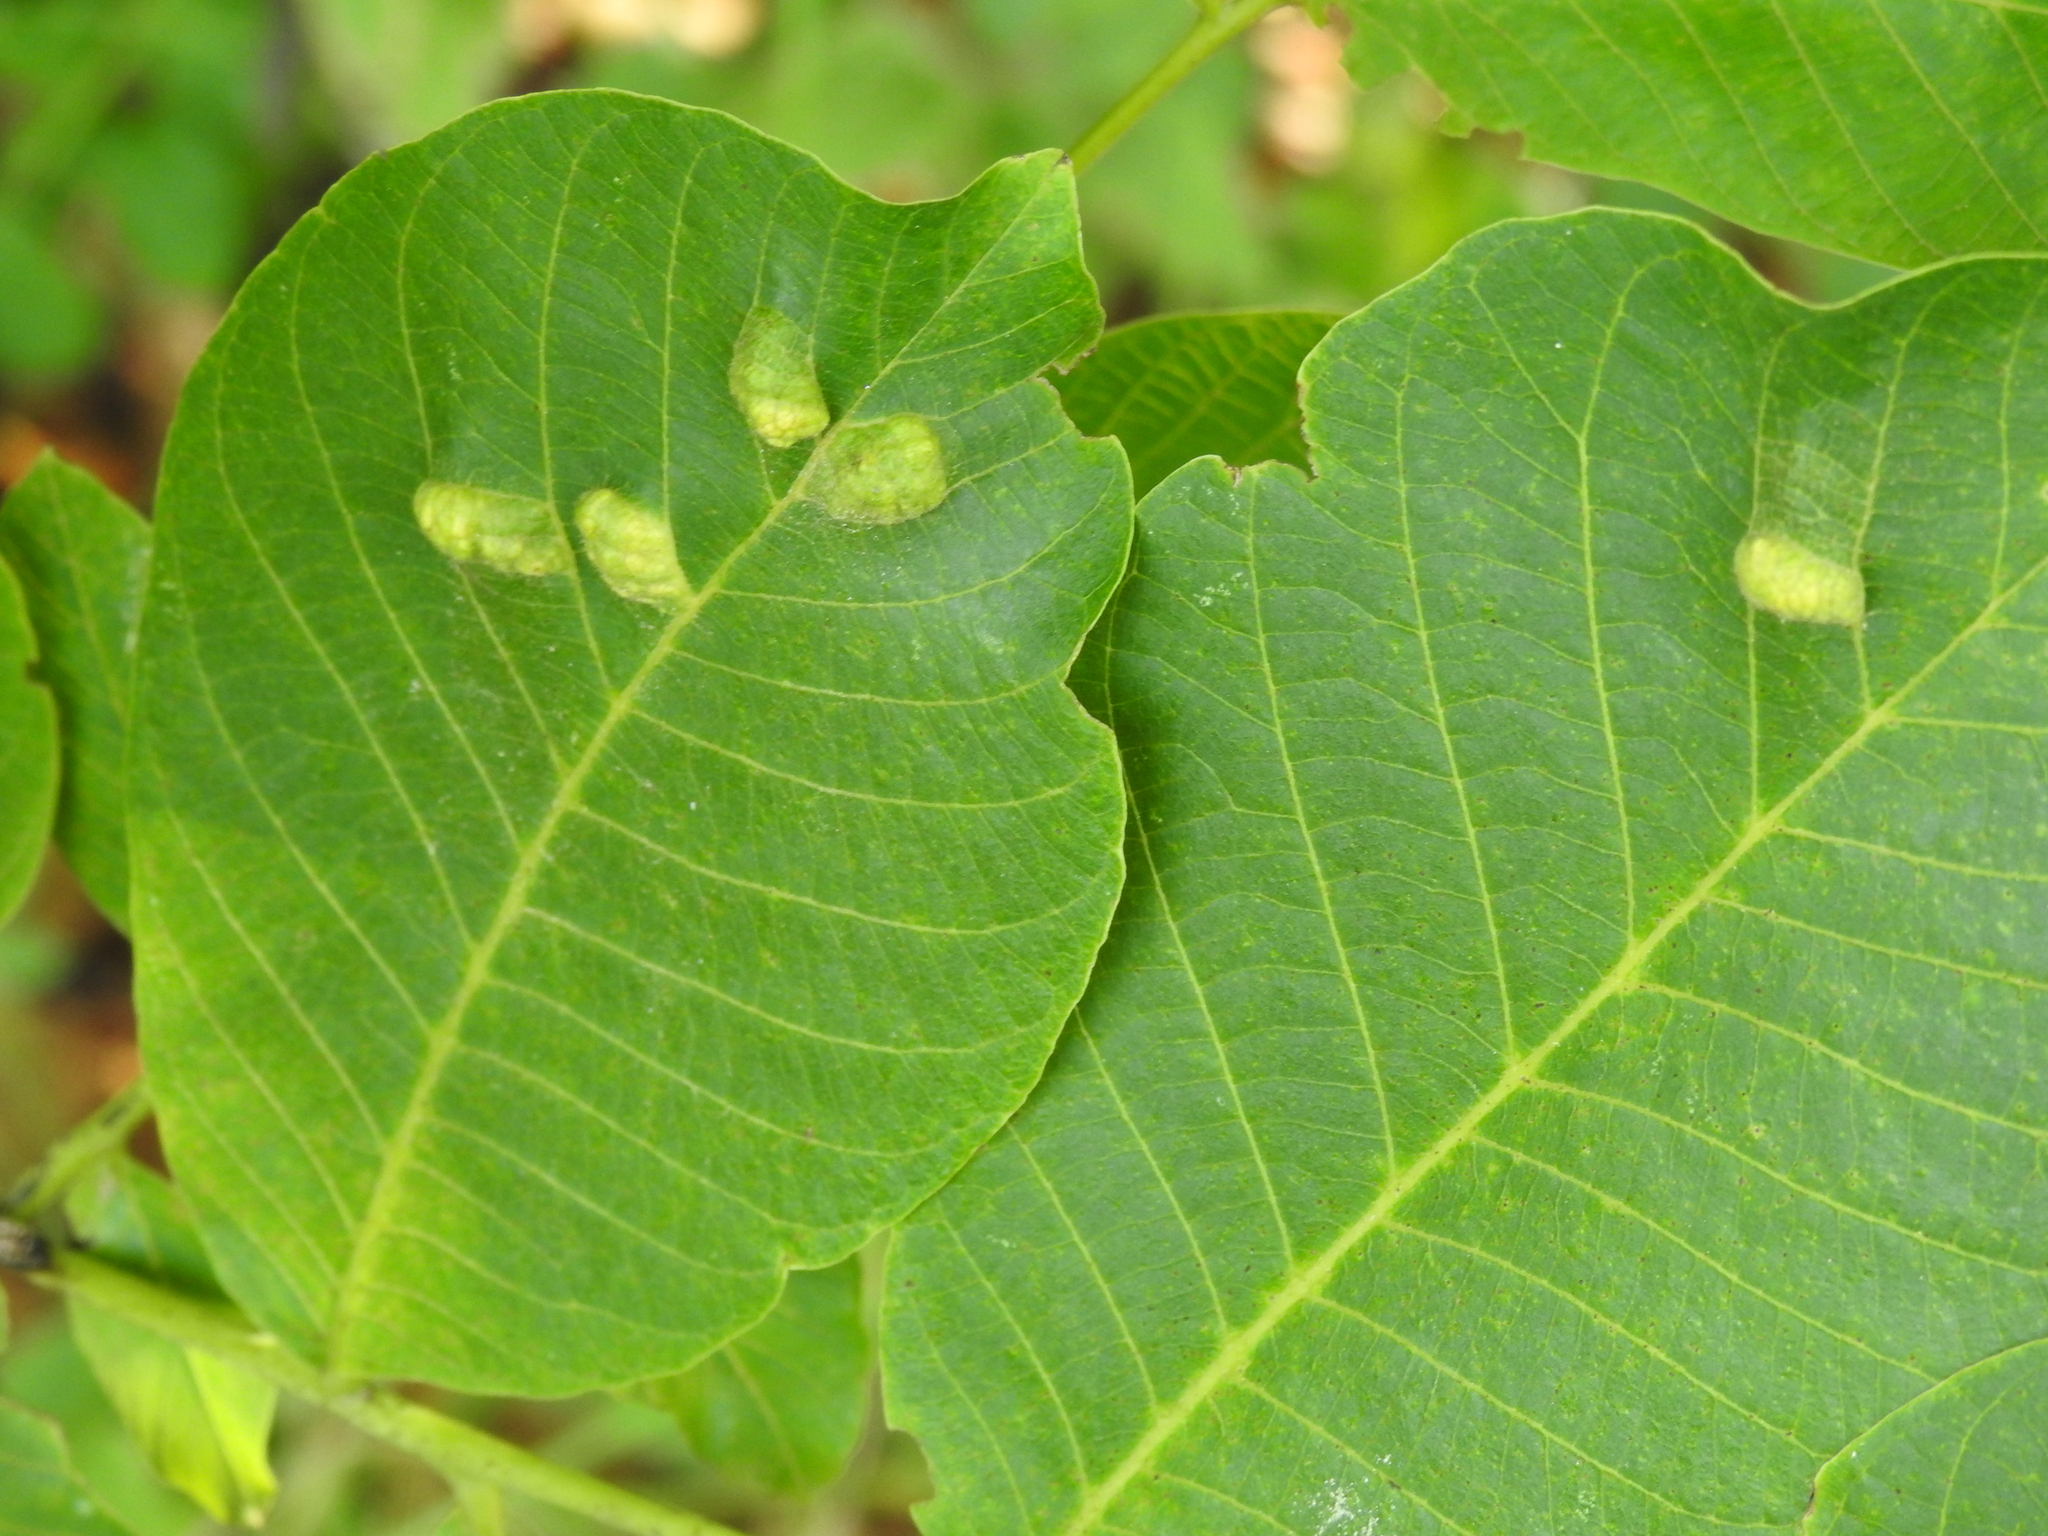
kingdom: Animalia
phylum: Arthropoda
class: Arachnida
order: Trombidiformes
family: Eriophyidae
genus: Aceria
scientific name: Aceria erinea
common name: Persian walnut erineum mite
